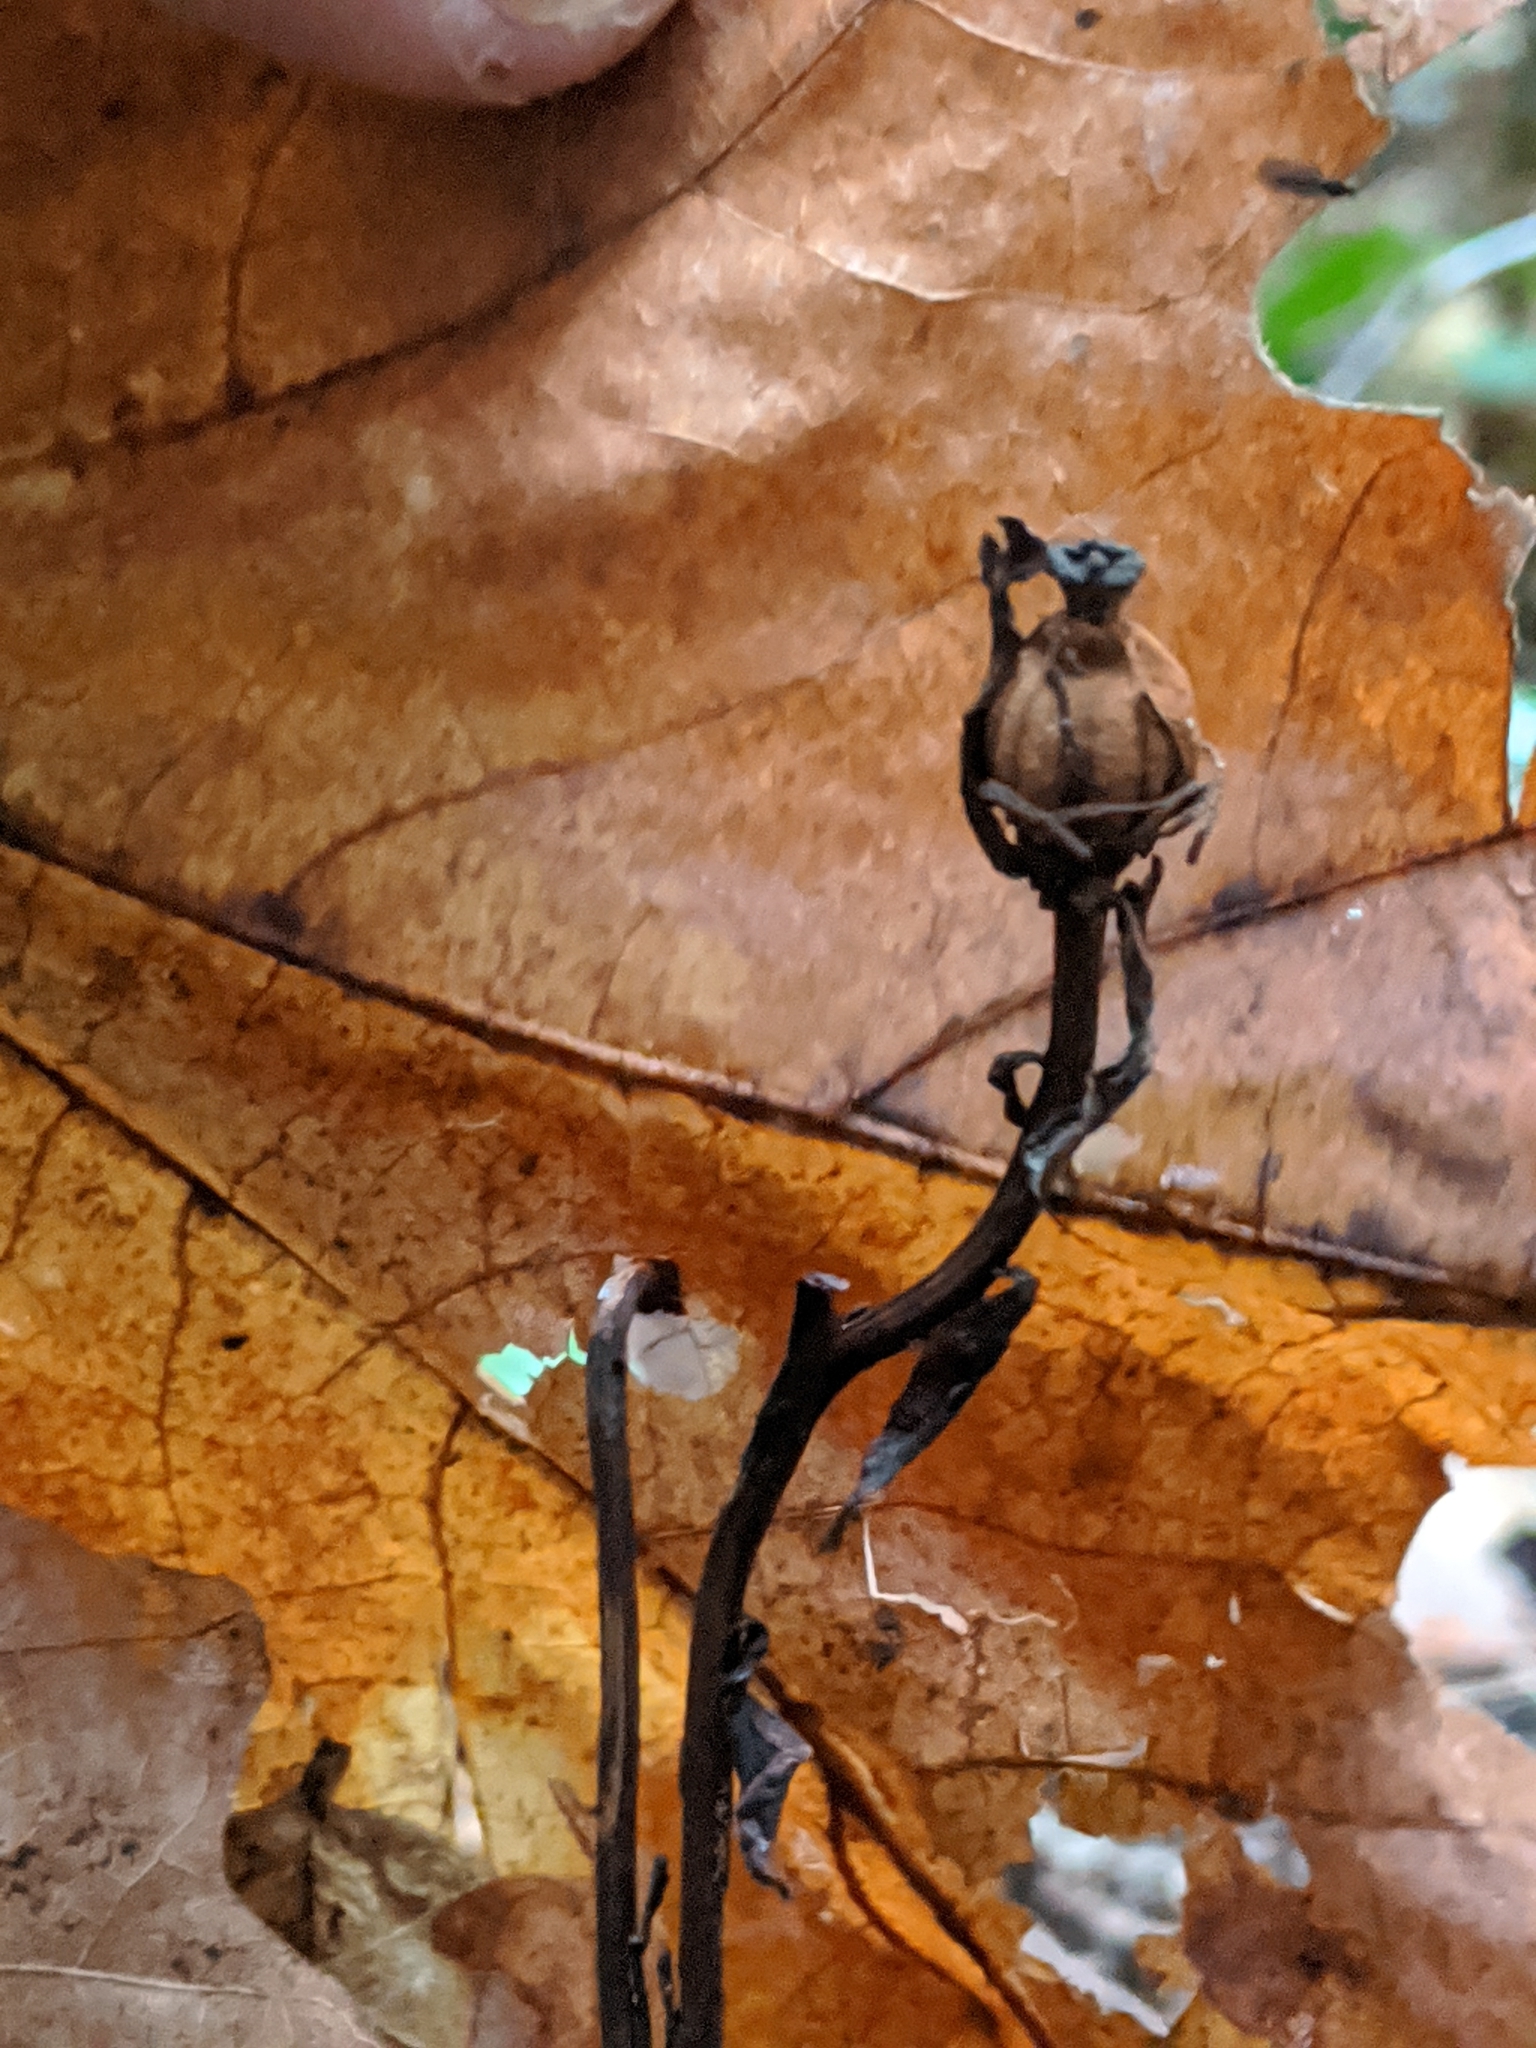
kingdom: Plantae
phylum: Tracheophyta
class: Magnoliopsida
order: Ericales
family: Ericaceae
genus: Monotropa
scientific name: Monotropa uniflora
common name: Convulsion root
